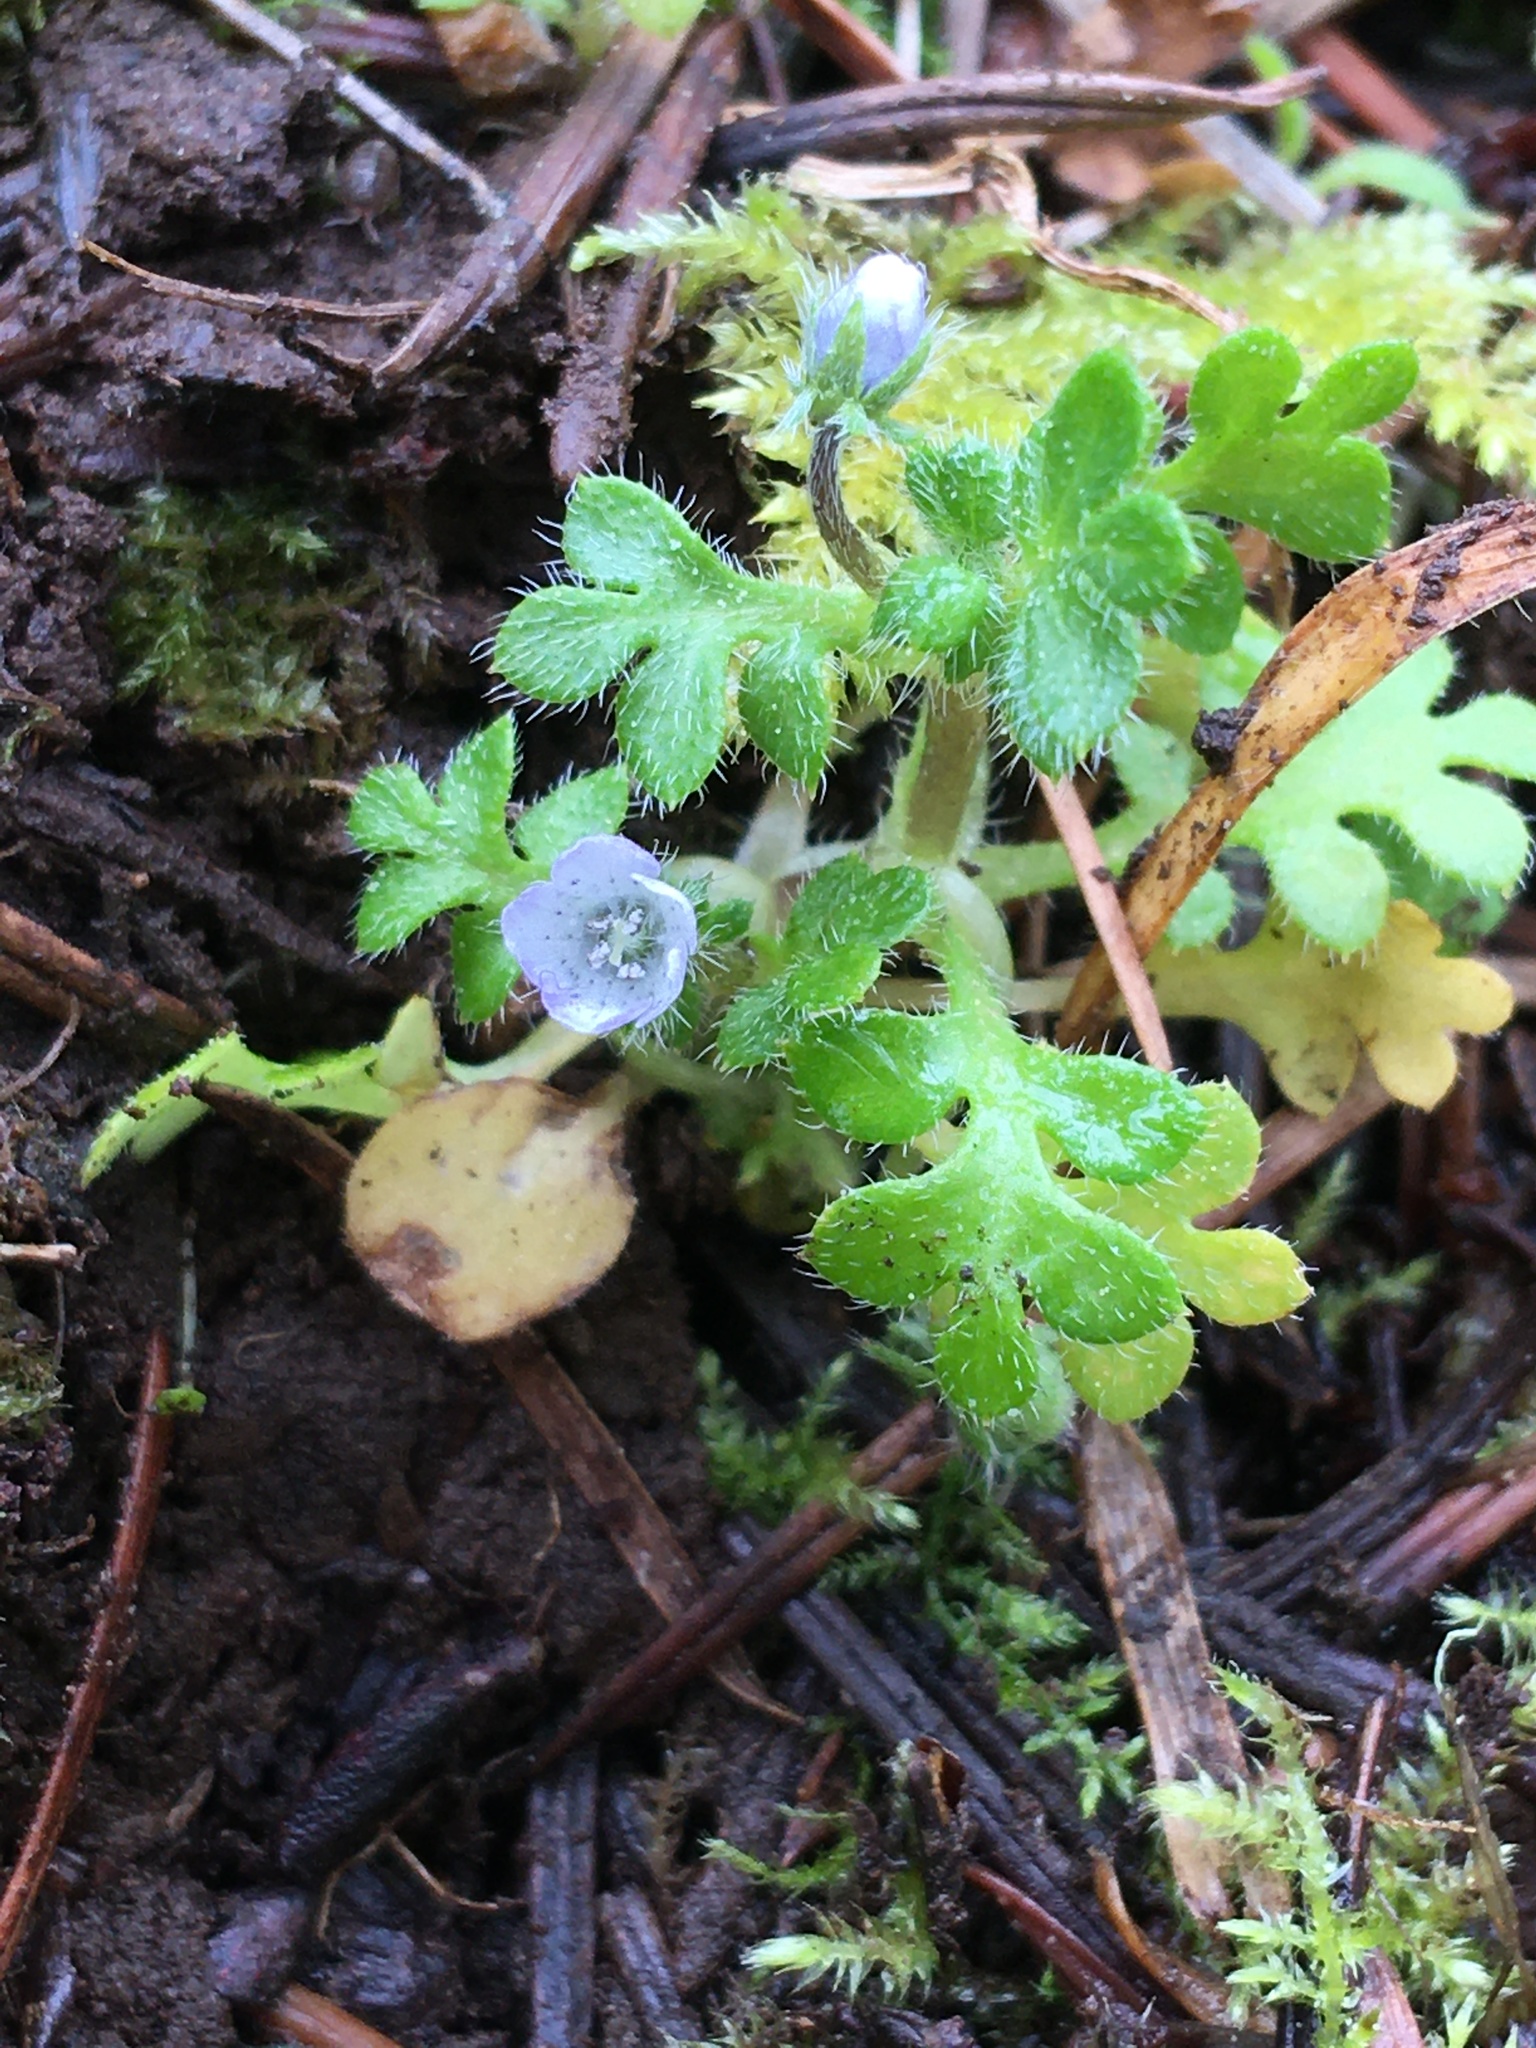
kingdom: Plantae
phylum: Tracheophyta
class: Magnoliopsida
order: Boraginales
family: Hydrophyllaceae
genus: Nemophila
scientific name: Nemophila parviflora
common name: Small-flowered baby-blue-eyes
